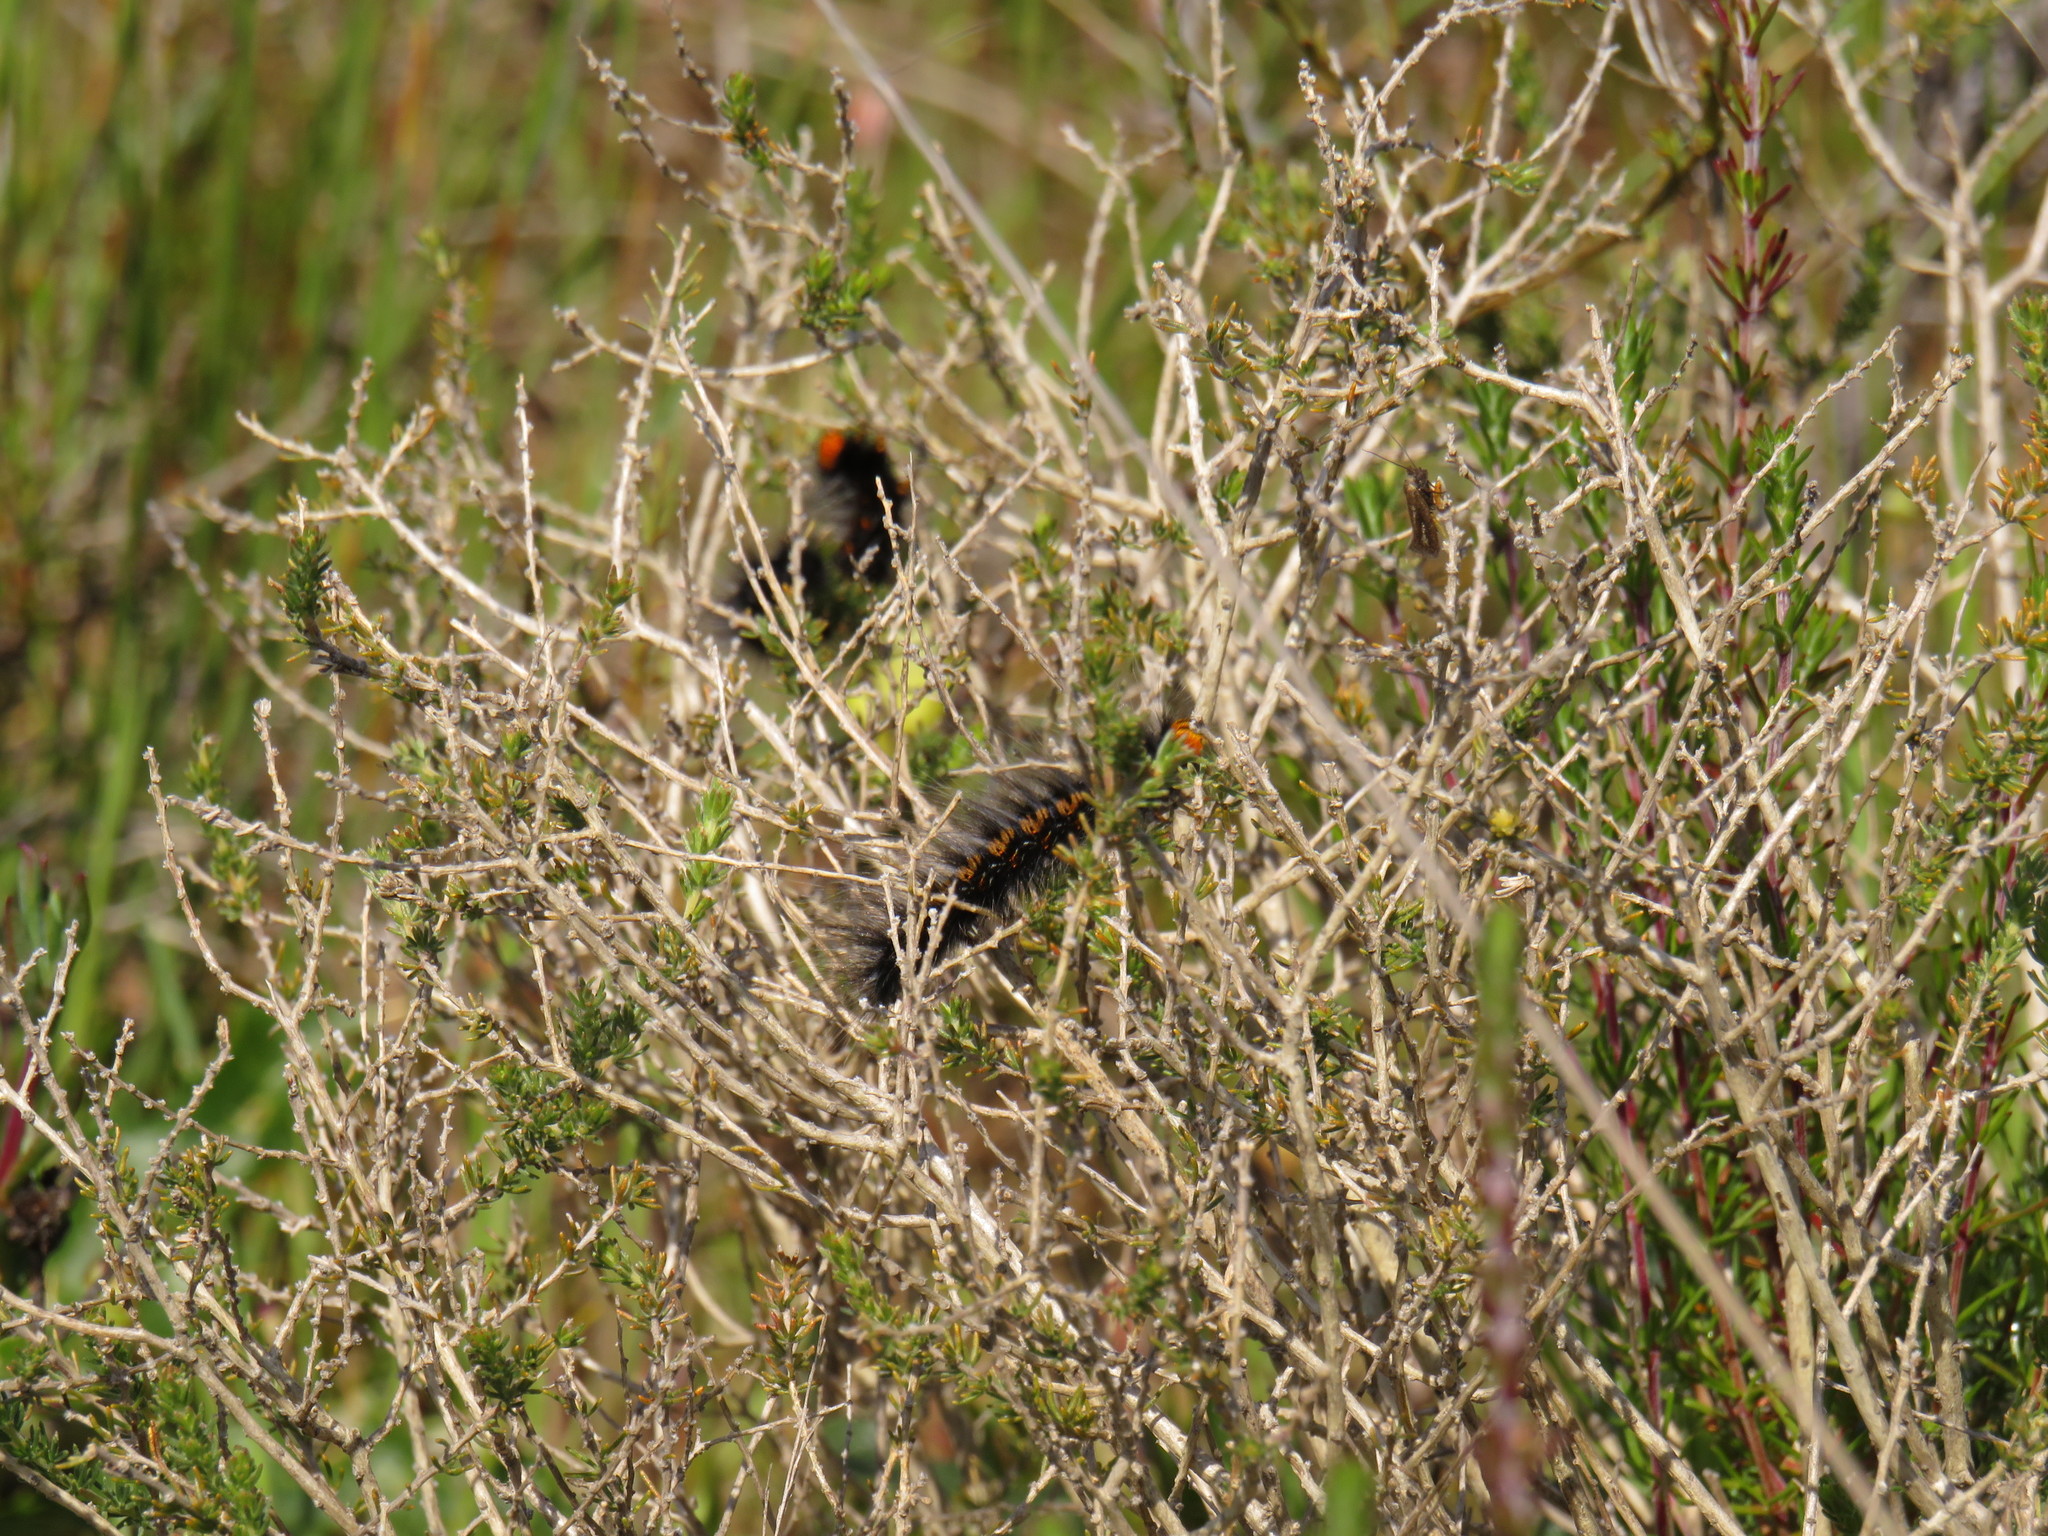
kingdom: Animalia
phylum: Arthropoda
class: Insecta
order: Lepidoptera
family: Lasiocampidae
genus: Mesocelis
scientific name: Mesocelis monticola
